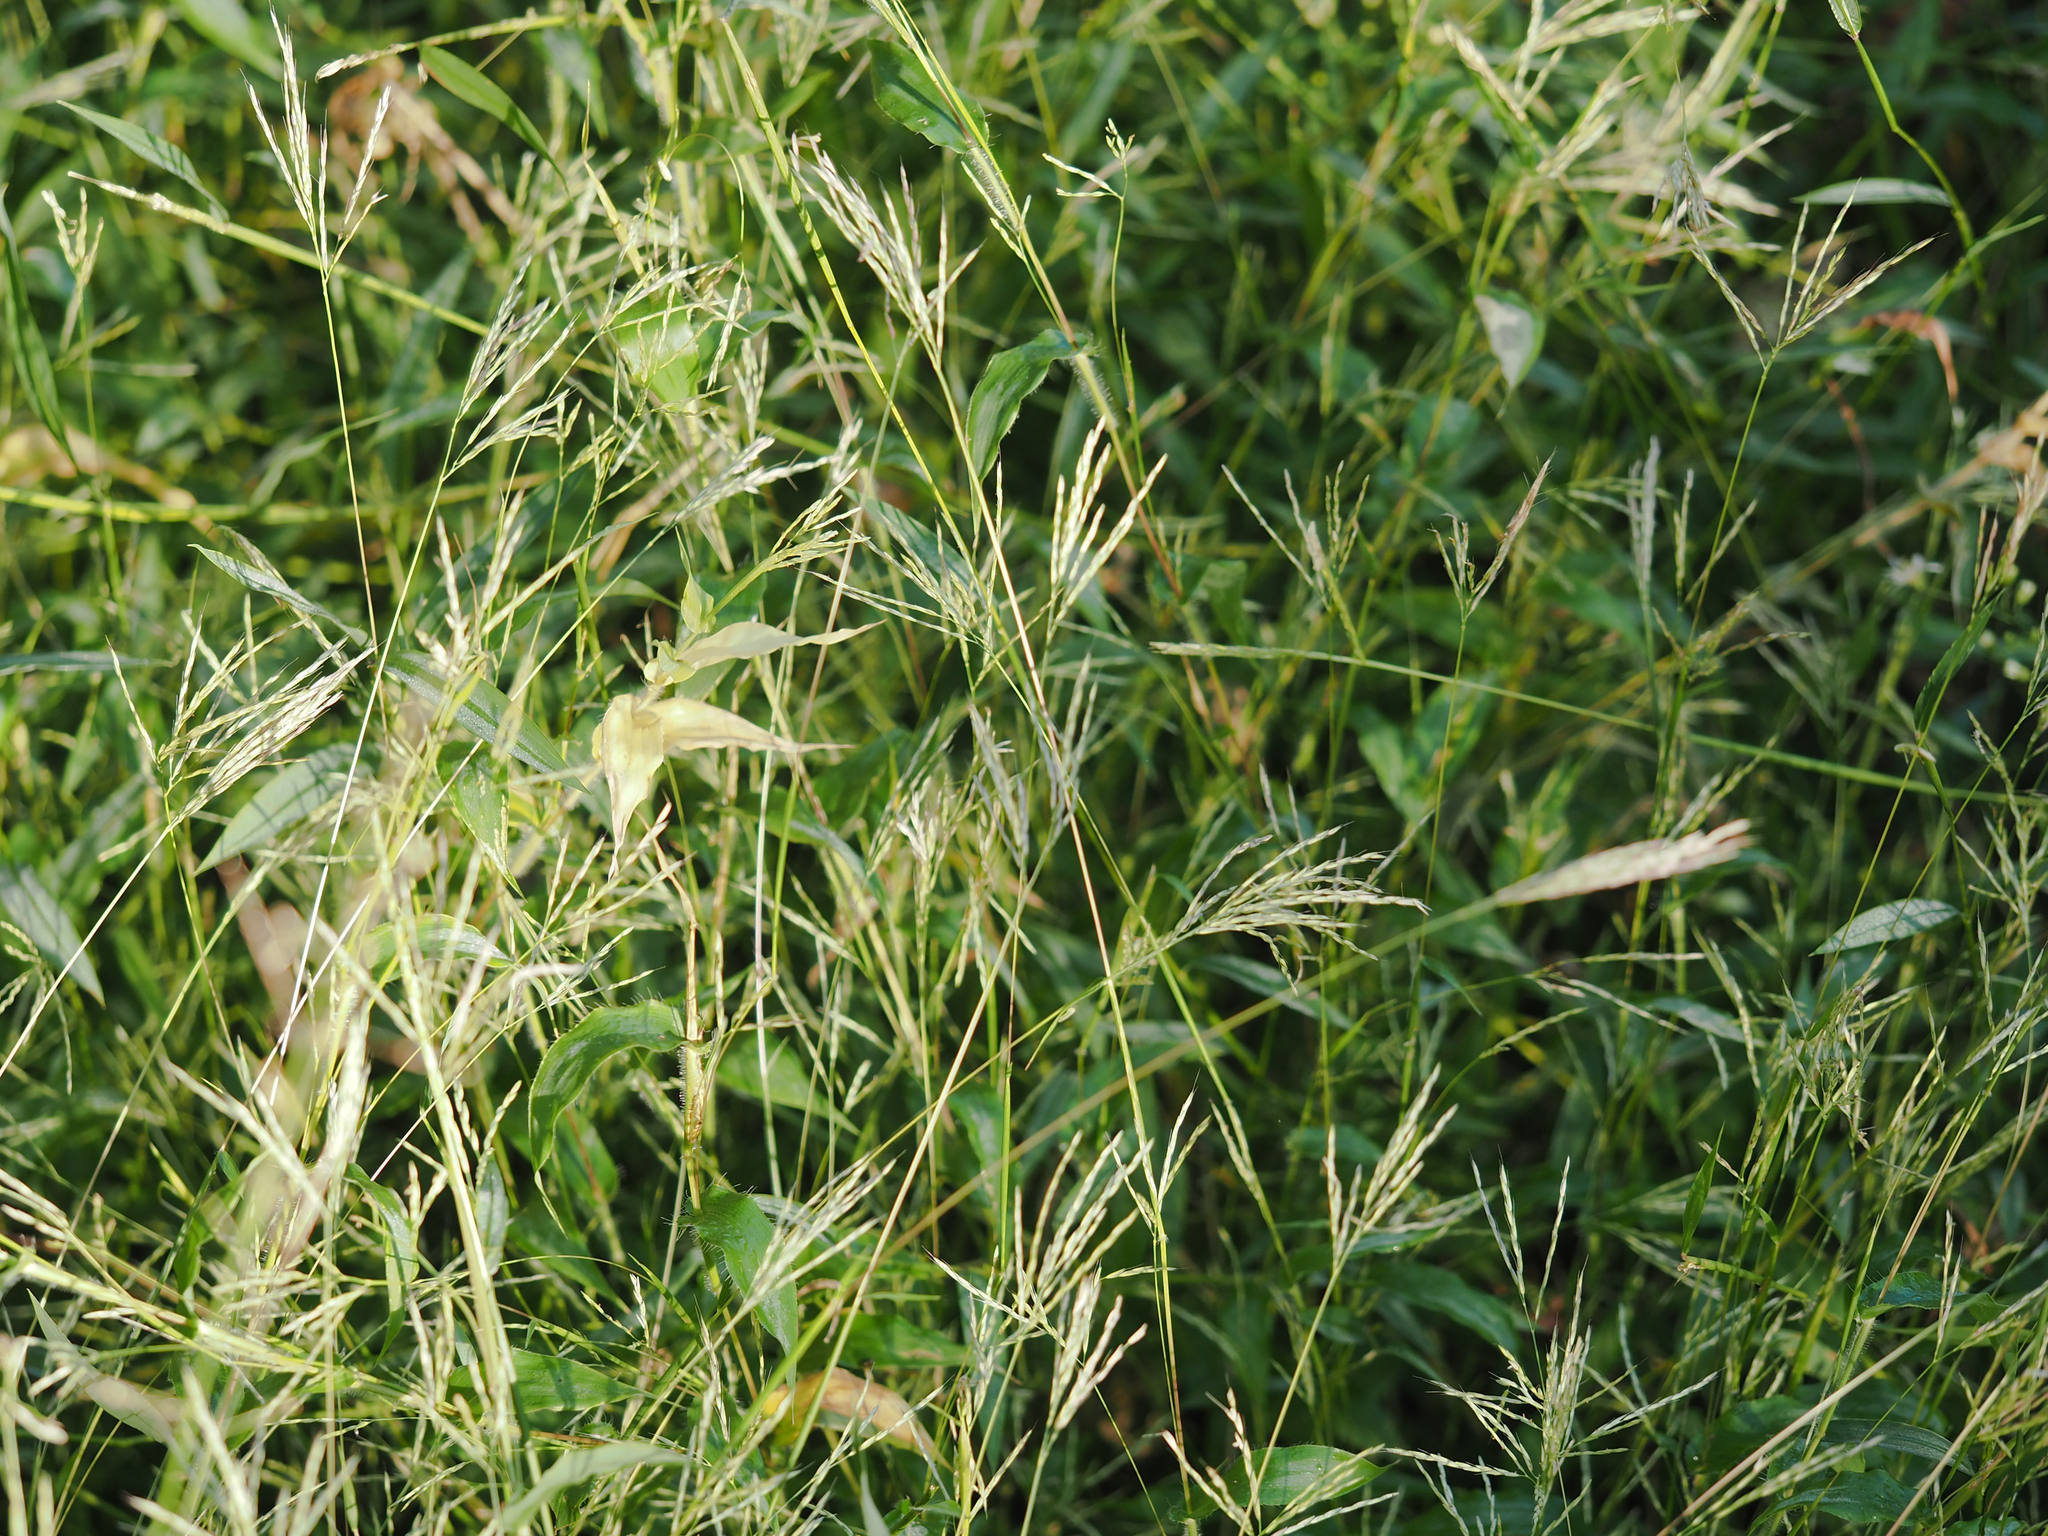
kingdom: Plantae
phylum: Tracheophyta
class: Liliopsida
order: Poales
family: Poaceae
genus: Arthraxon
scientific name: Arthraxon hispidus
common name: Small carpgrass
